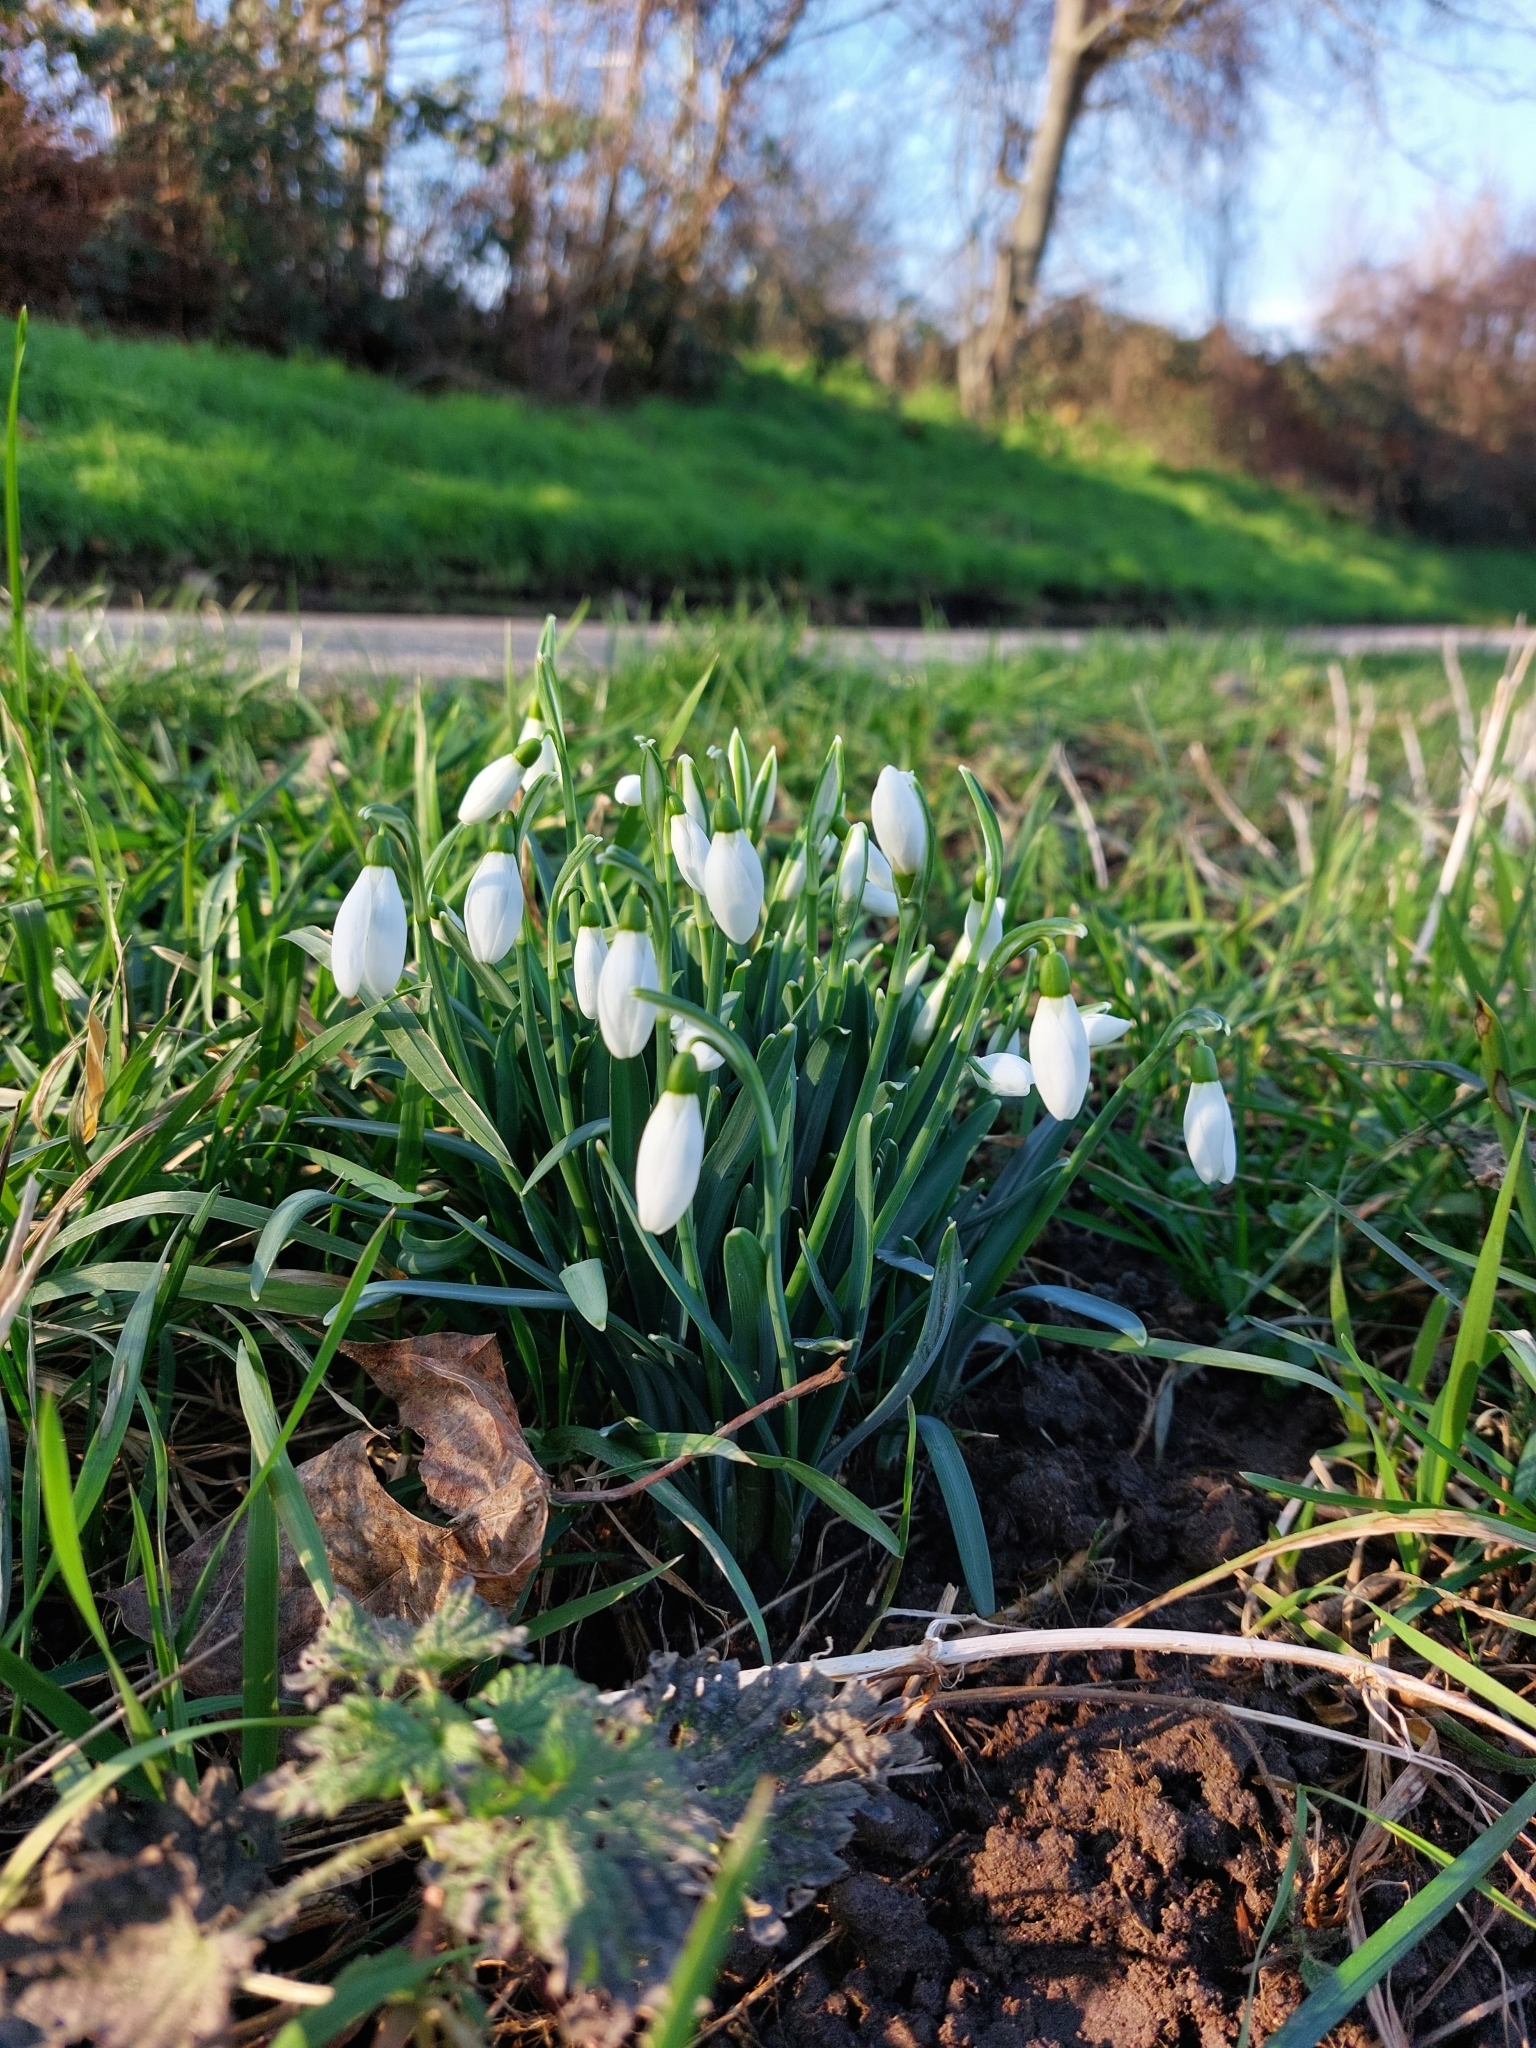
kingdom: Plantae
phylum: Tracheophyta
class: Liliopsida
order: Asparagales
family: Amaryllidaceae
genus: Galanthus
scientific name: Galanthus nivalis
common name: Snowdrop
